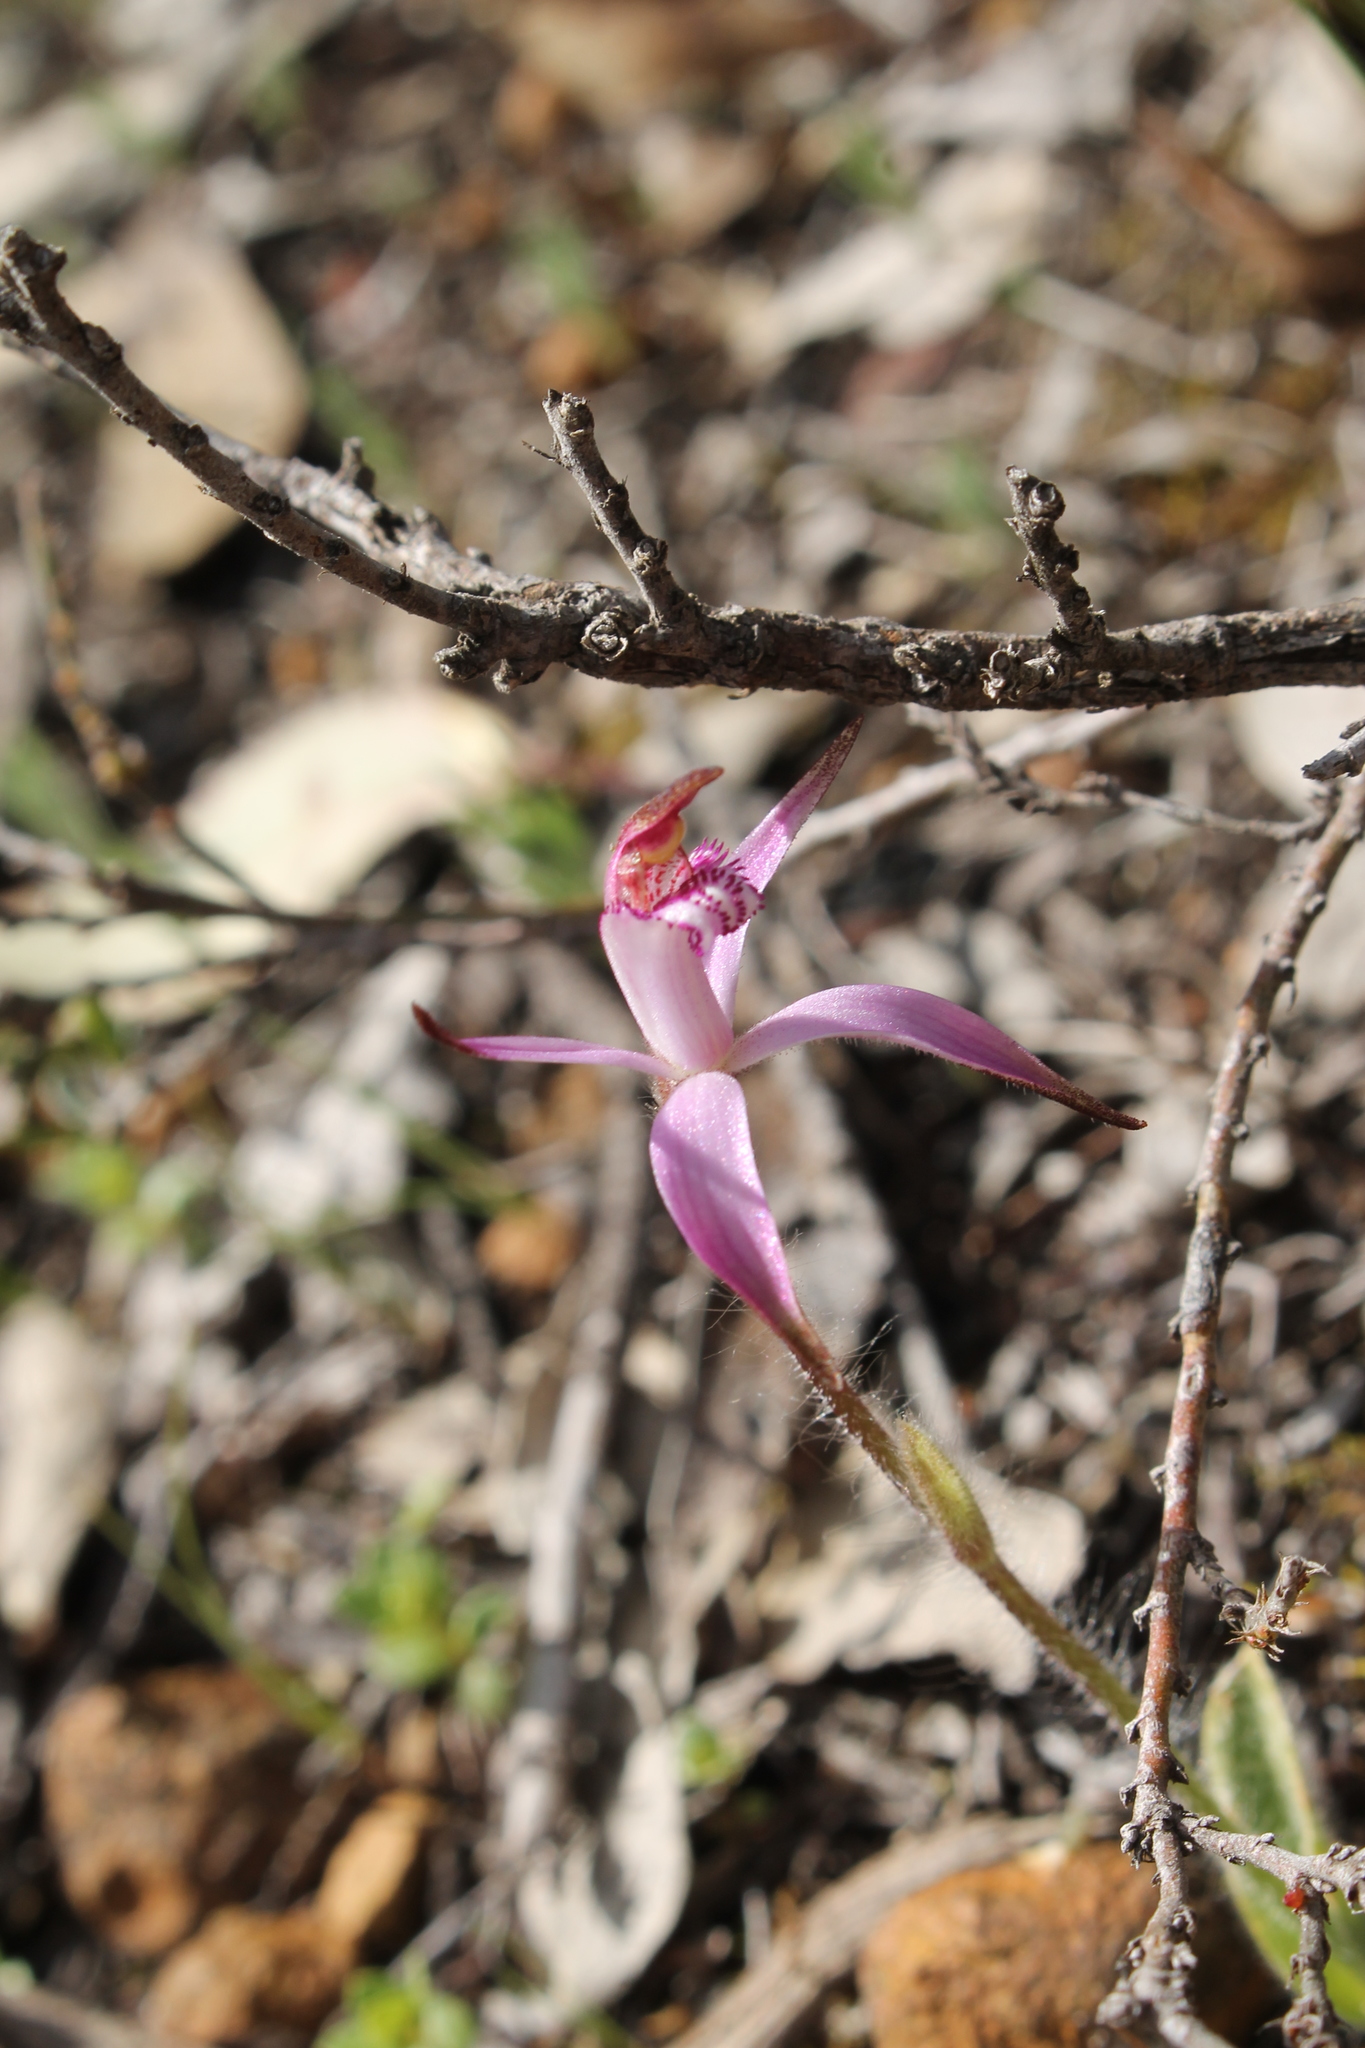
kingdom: Plantae
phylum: Tracheophyta
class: Liliopsida
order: Asparagales
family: Orchidaceae
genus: Caladenia
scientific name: Caladenia hirta
